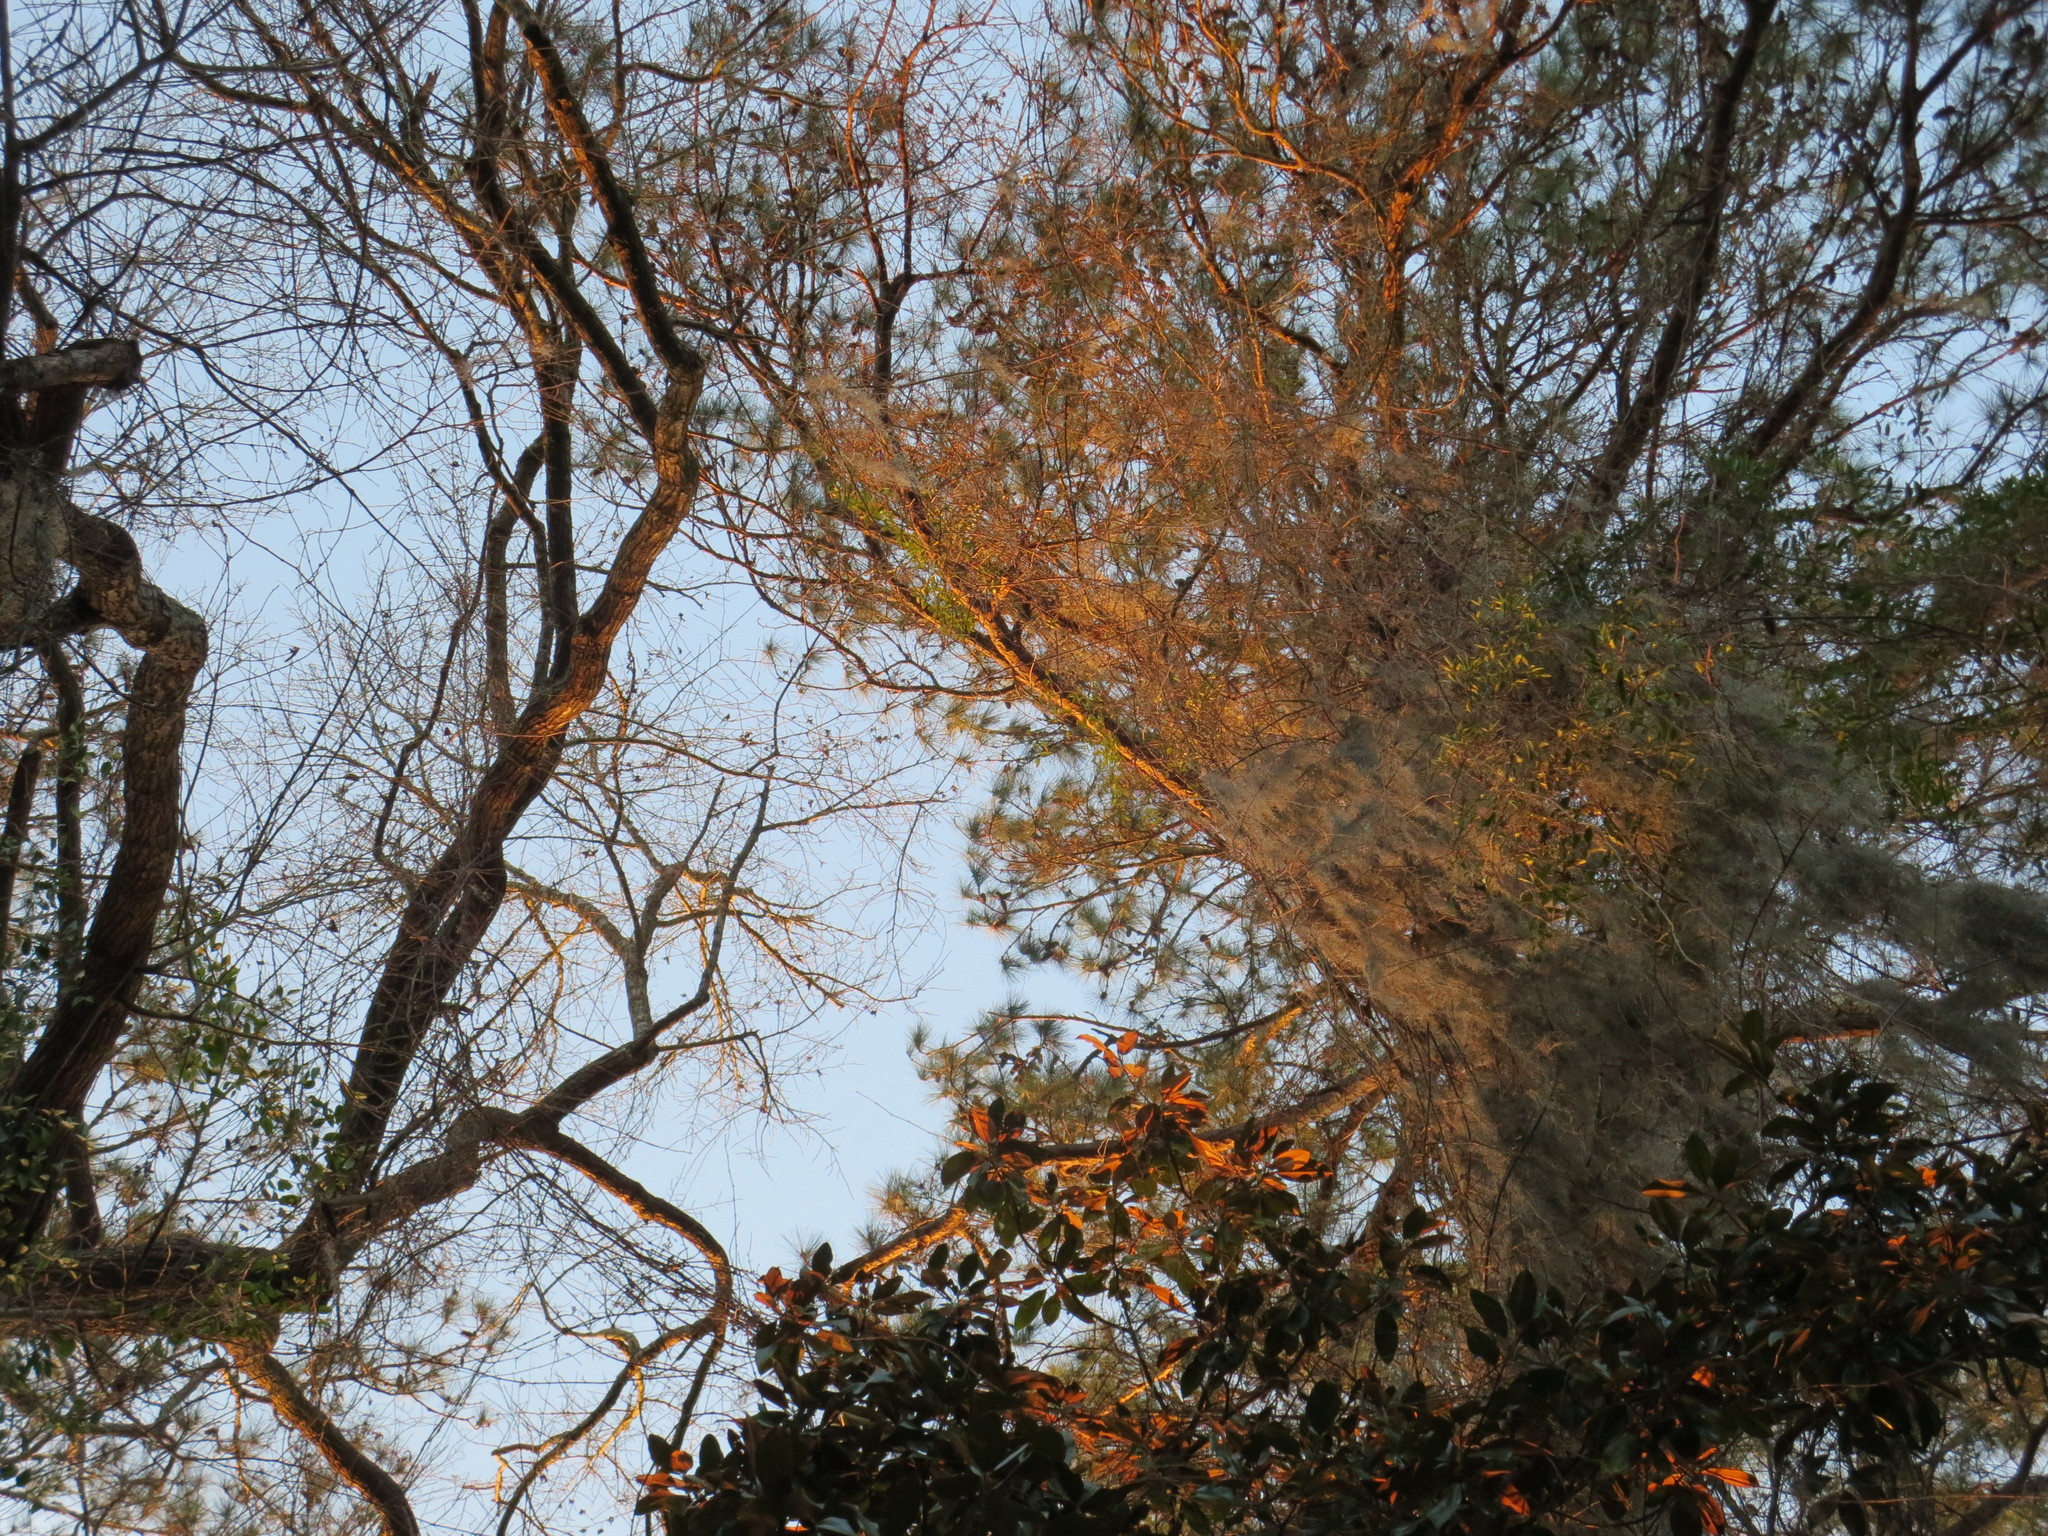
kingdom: Plantae
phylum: Tracheophyta
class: Liliopsida
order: Poales
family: Bromeliaceae
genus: Tillandsia
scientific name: Tillandsia usneoides
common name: Spanish moss
